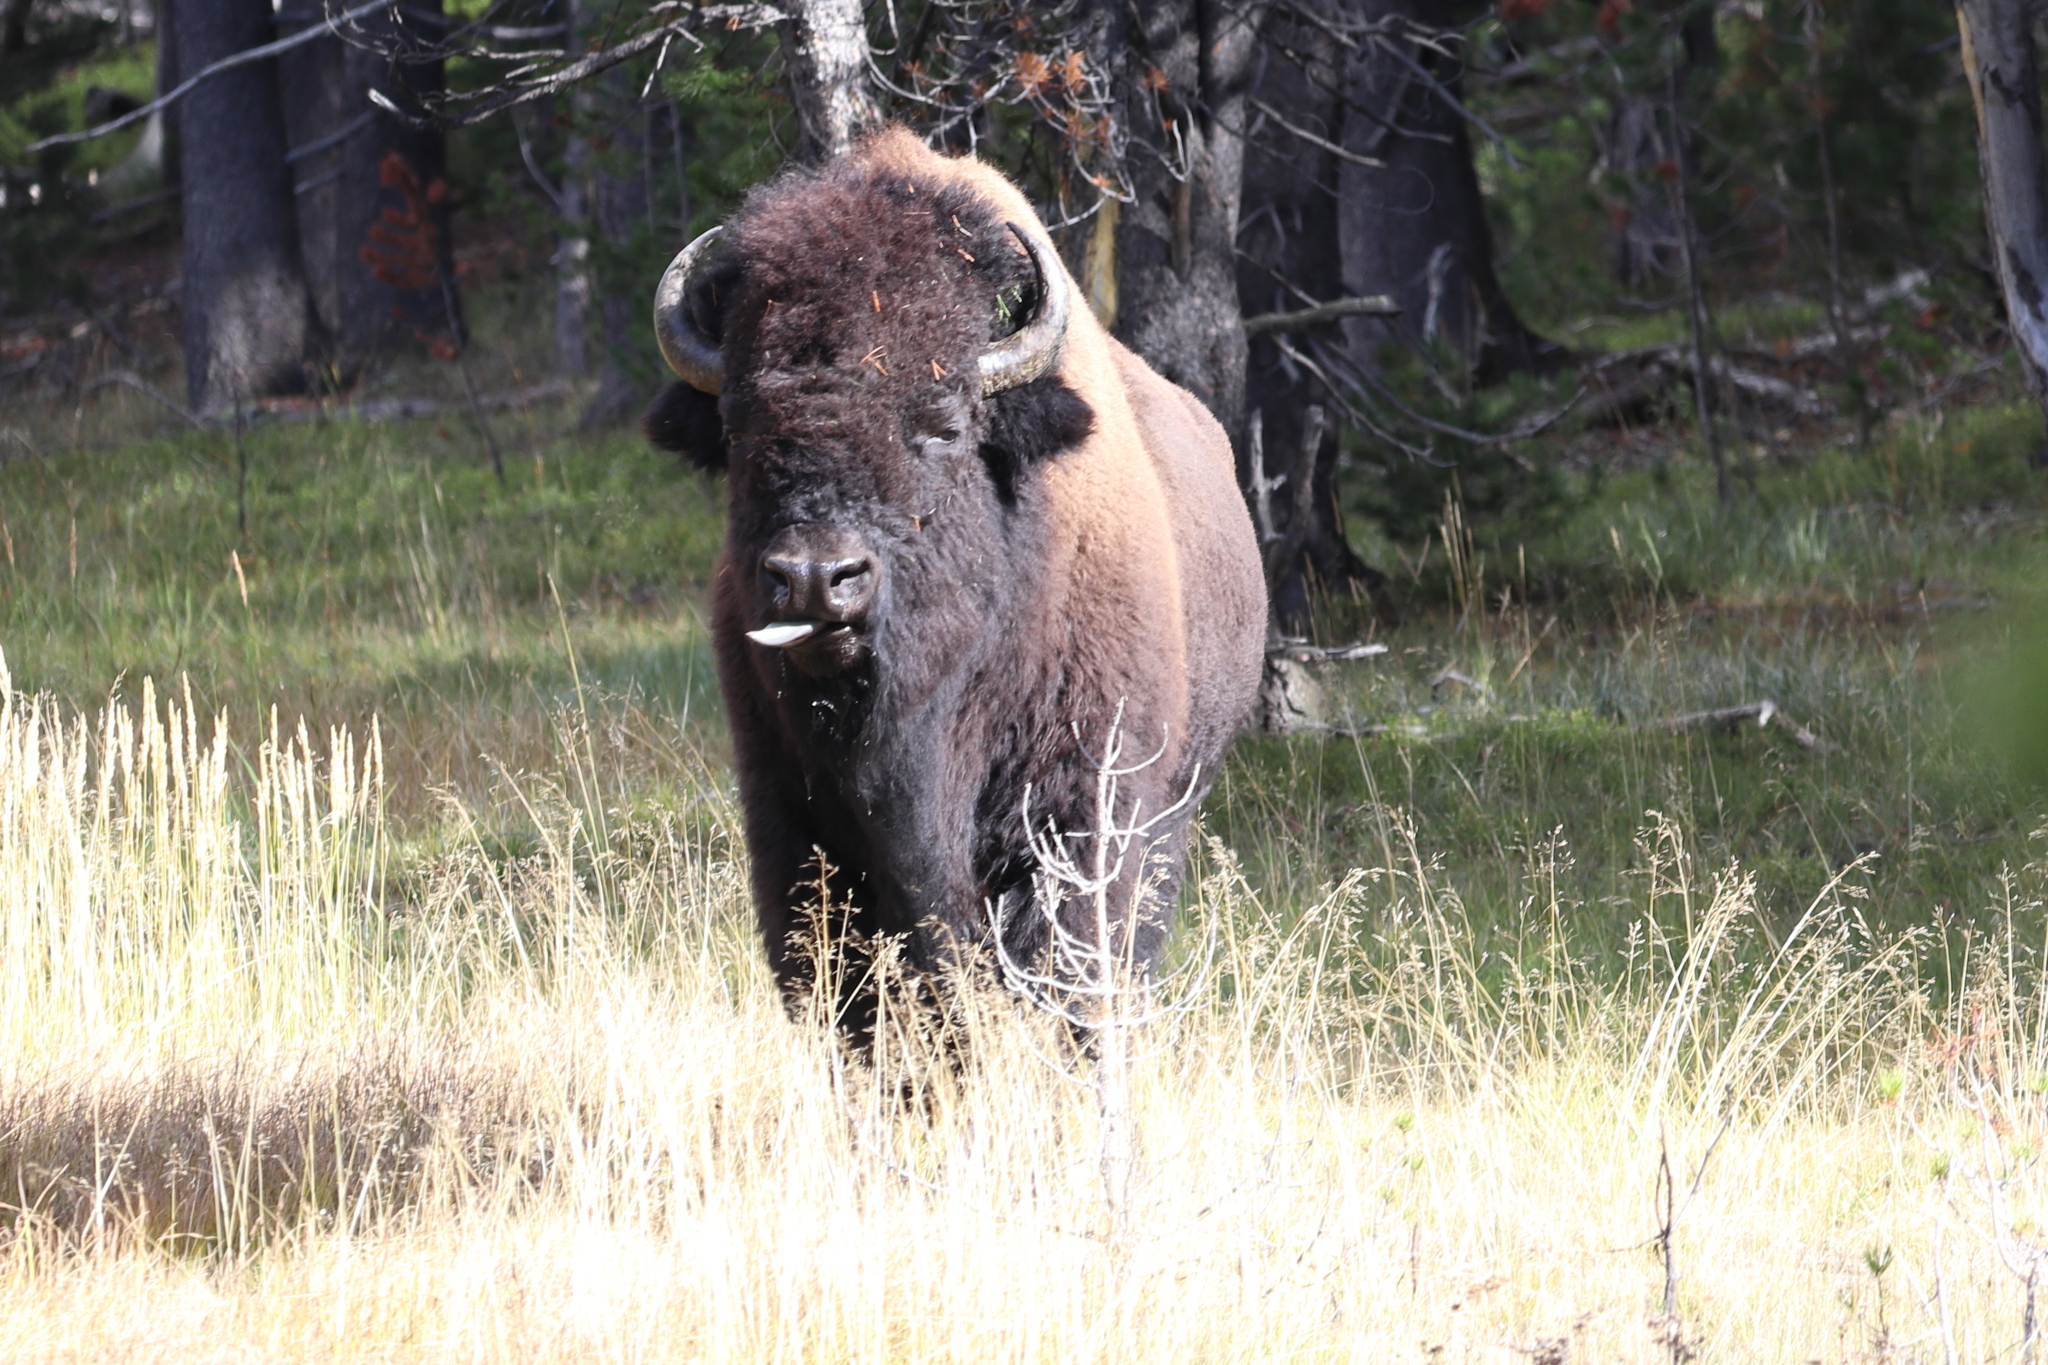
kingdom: Animalia
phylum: Chordata
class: Mammalia
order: Artiodactyla
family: Bovidae
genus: Bison
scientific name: Bison bison
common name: American bison
